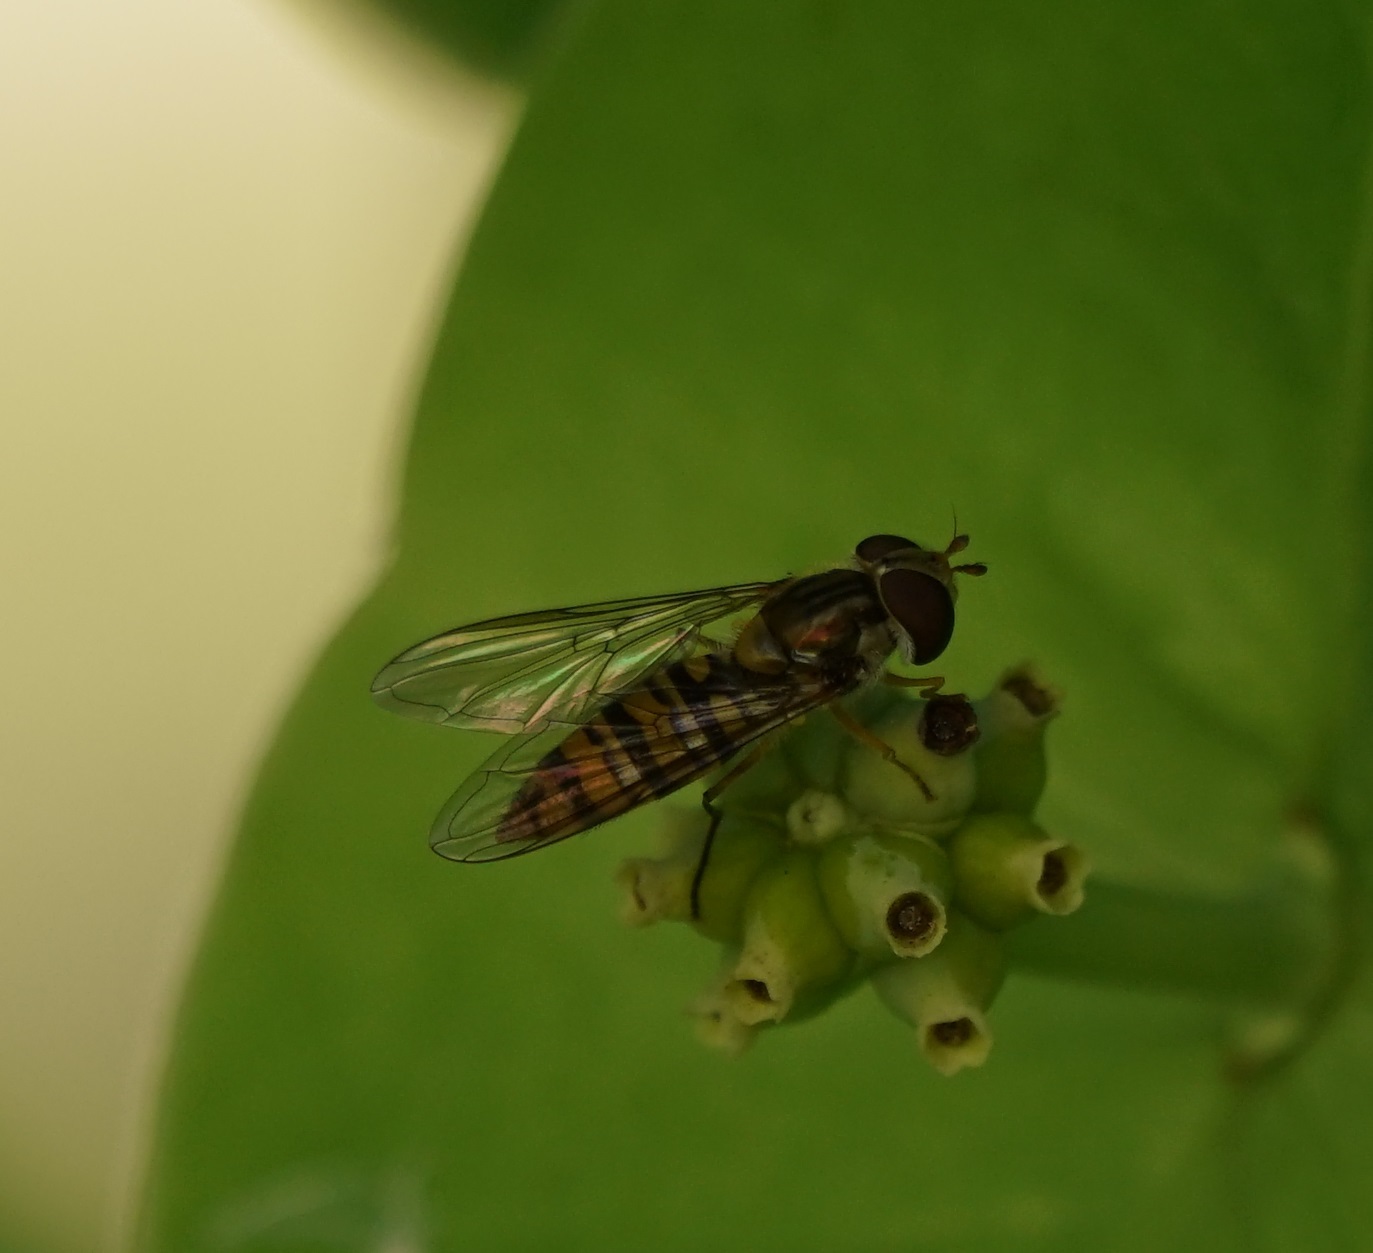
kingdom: Animalia
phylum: Arthropoda
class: Insecta
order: Diptera
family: Syrphidae
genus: Episyrphus
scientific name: Episyrphus balteatus
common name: Marmalade hoverfly
